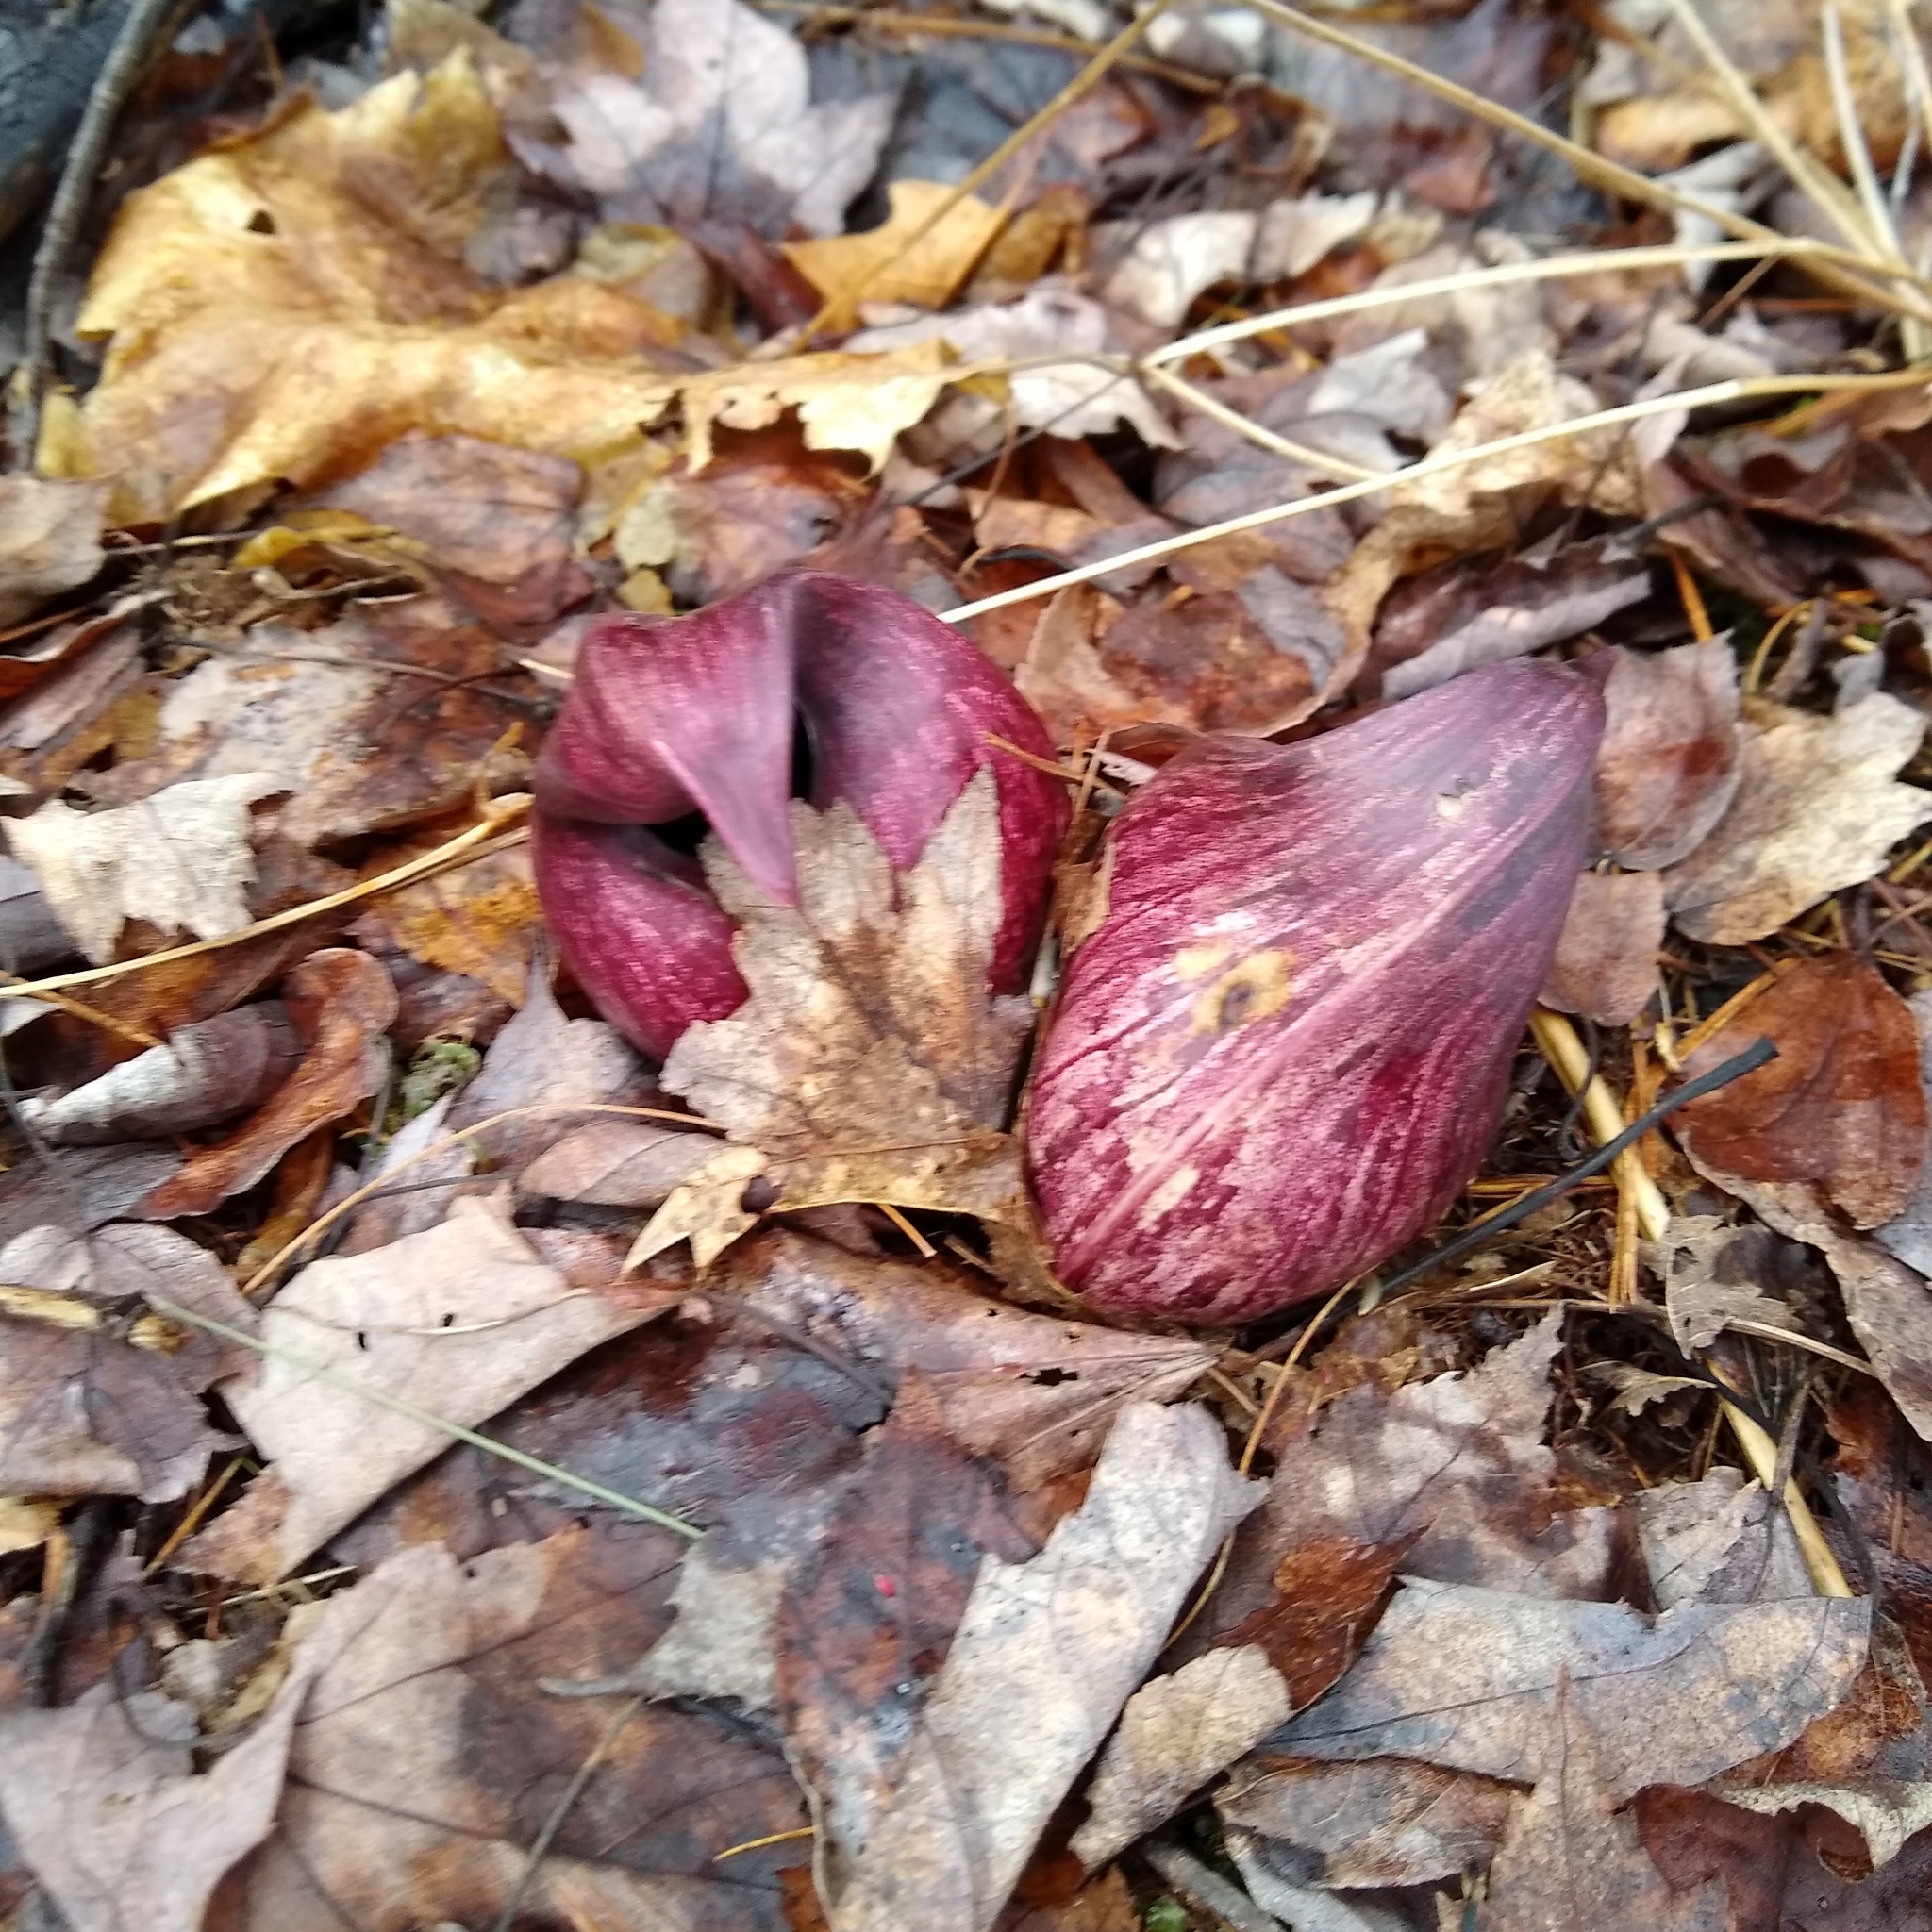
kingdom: Plantae
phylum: Tracheophyta
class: Liliopsida
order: Alismatales
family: Araceae
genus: Symplocarpus
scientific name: Symplocarpus foetidus
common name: Eastern skunk cabbage
